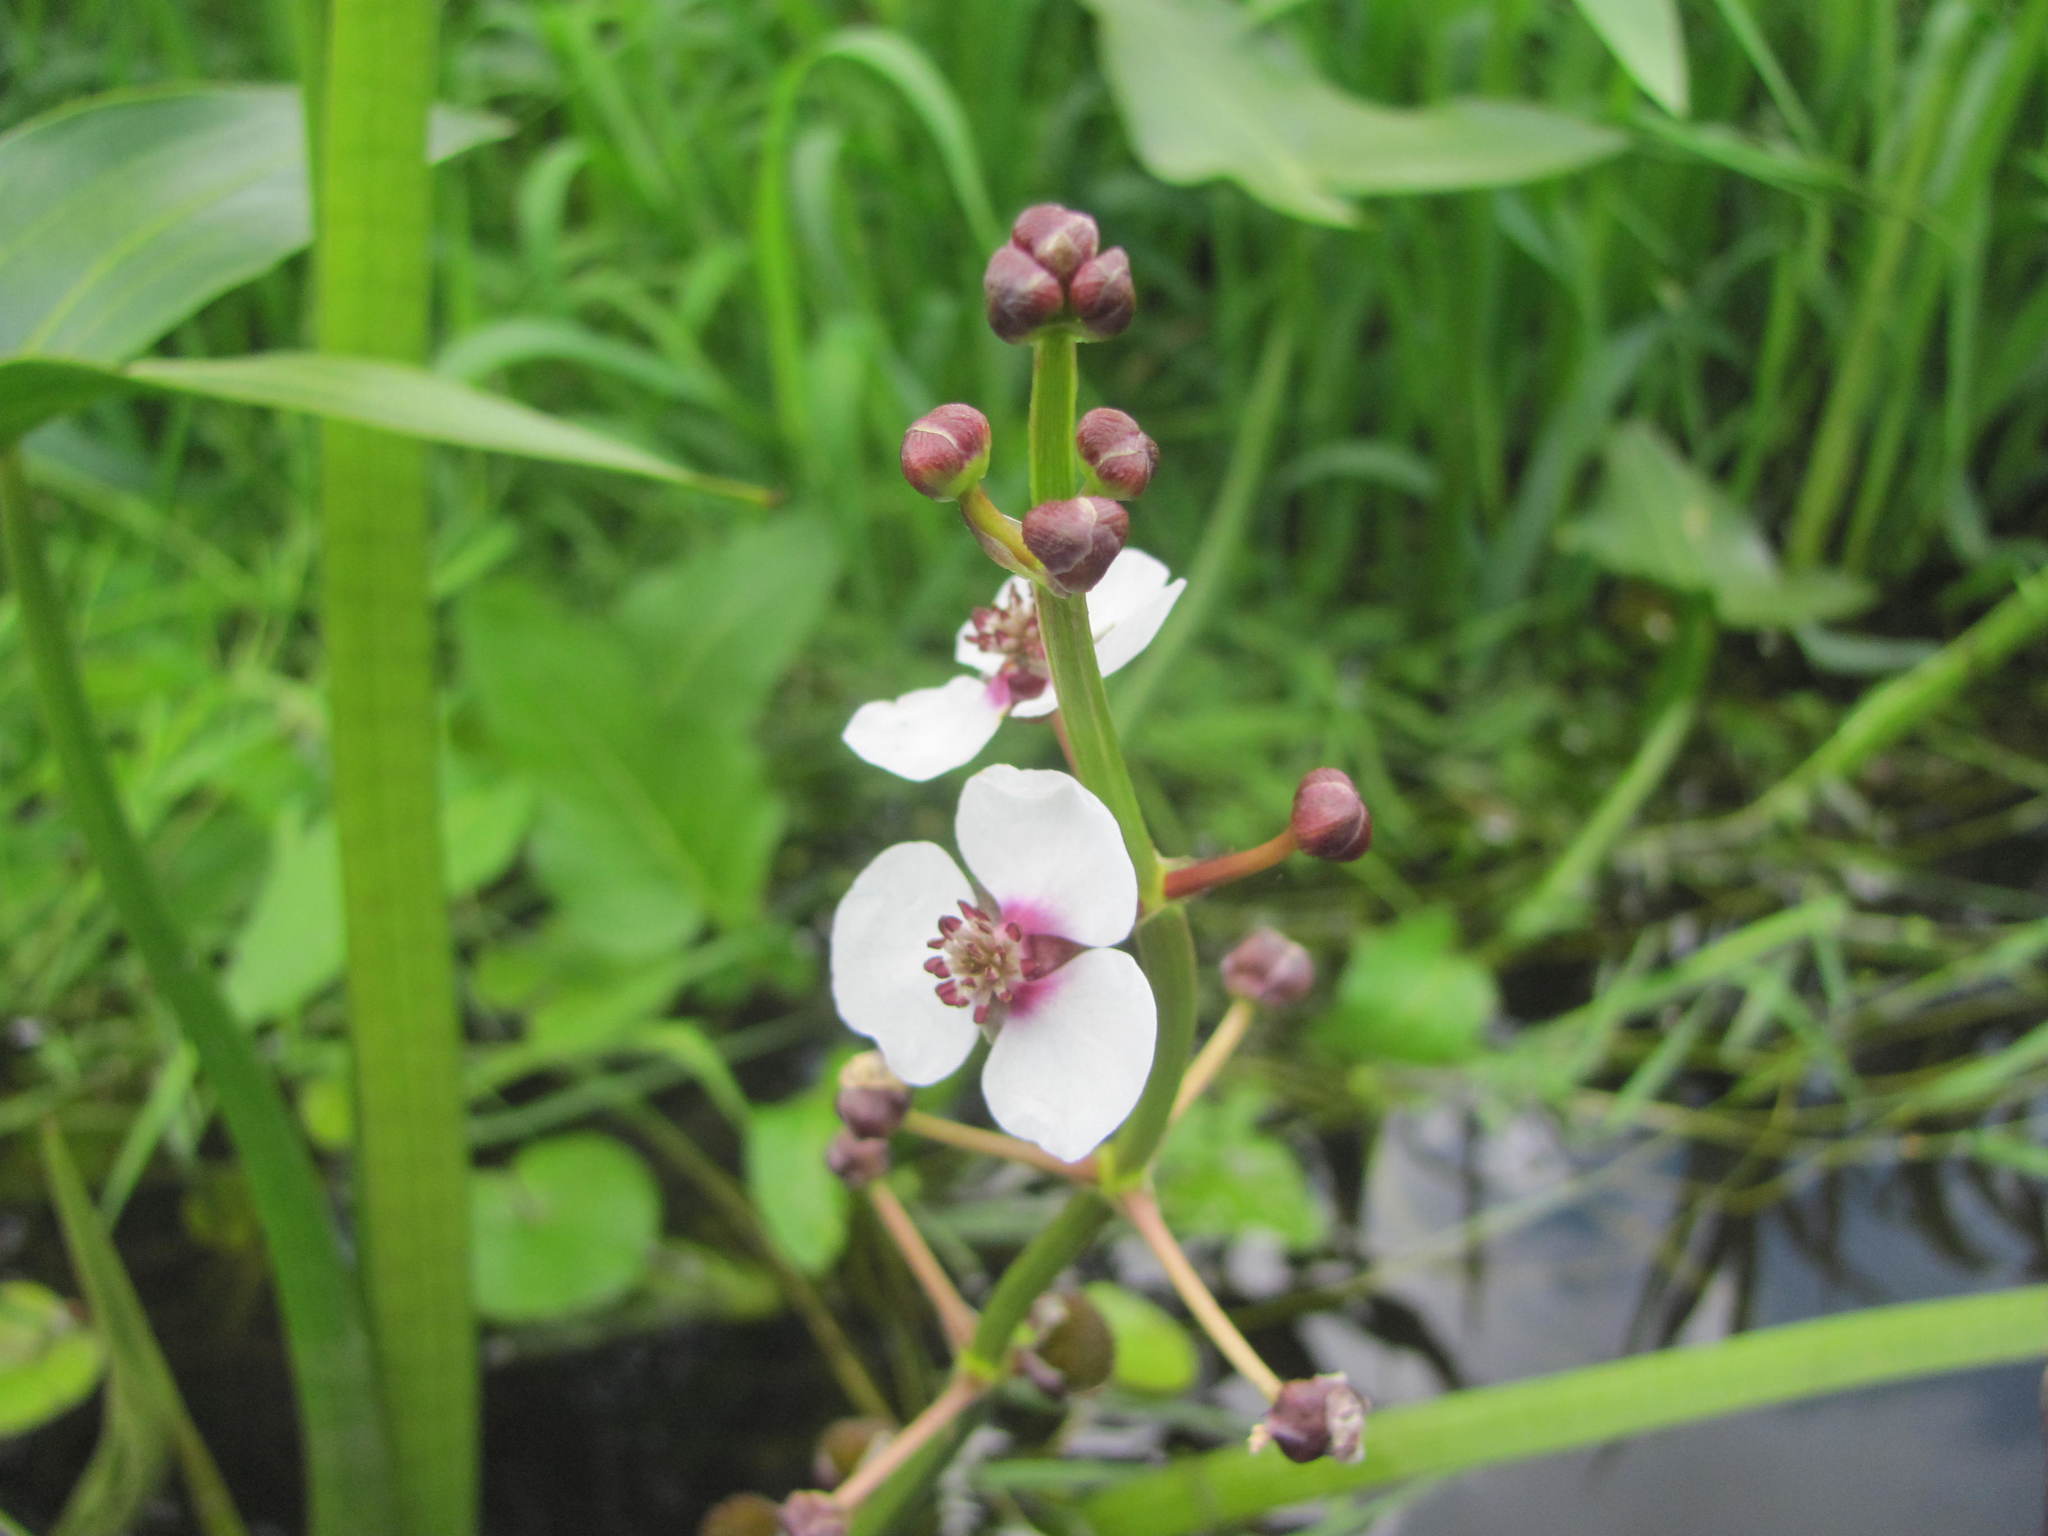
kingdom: Plantae
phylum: Tracheophyta
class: Liliopsida
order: Alismatales
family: Alismataceae
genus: Sagittaria
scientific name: Sagittaria sagittifolia
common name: Arrowhead
